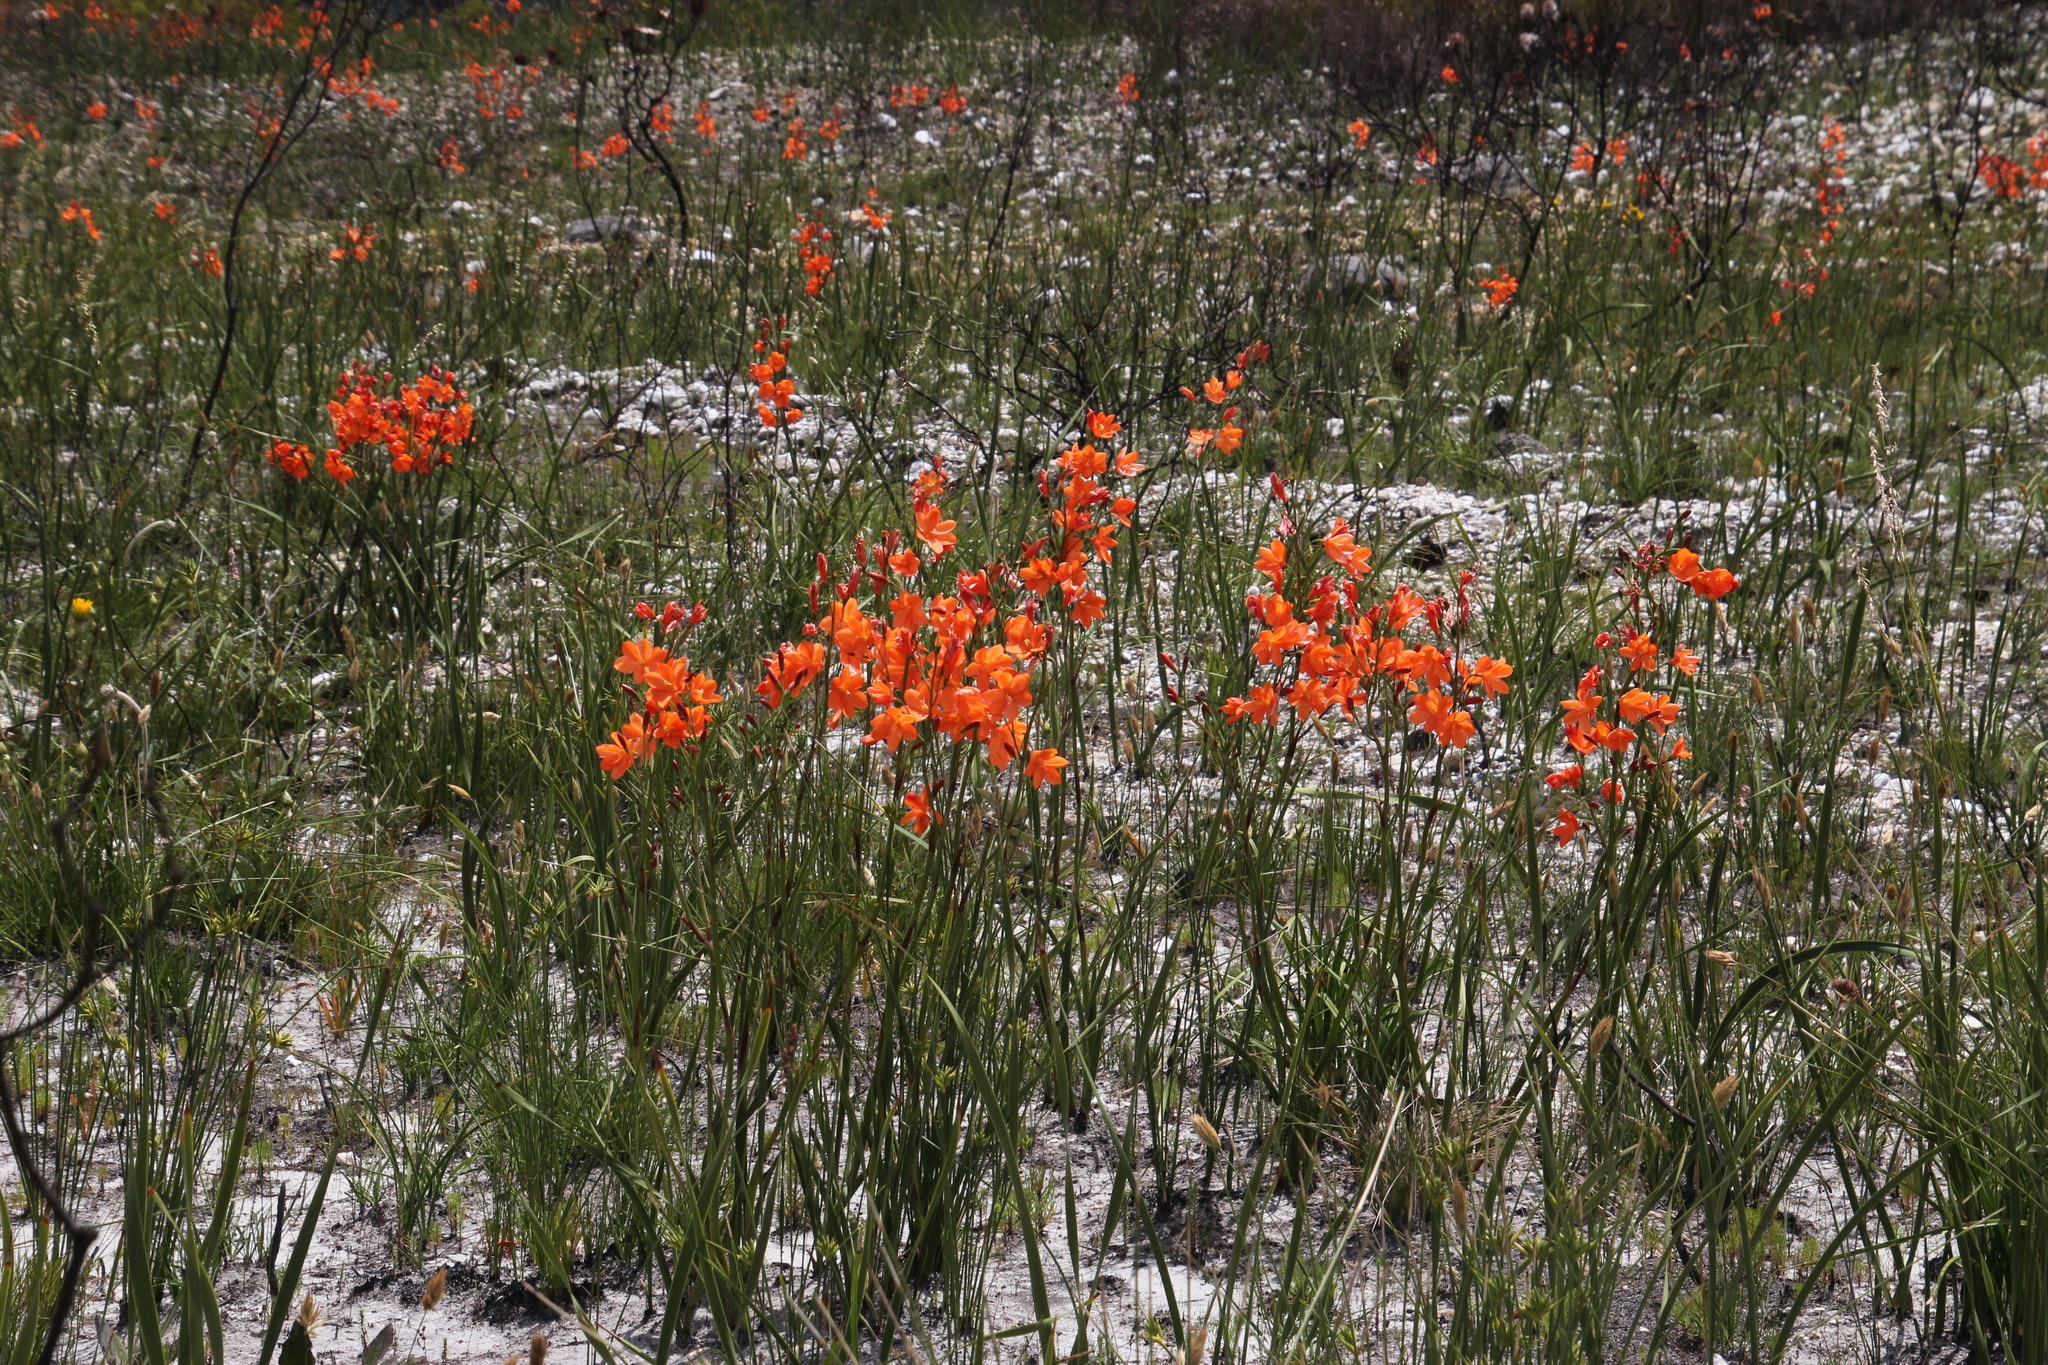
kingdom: Plantae
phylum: Tracheophyta
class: Liliopsida
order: Asparagales
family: Iridaceae
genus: Pillansia
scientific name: Pillansia templemannii
